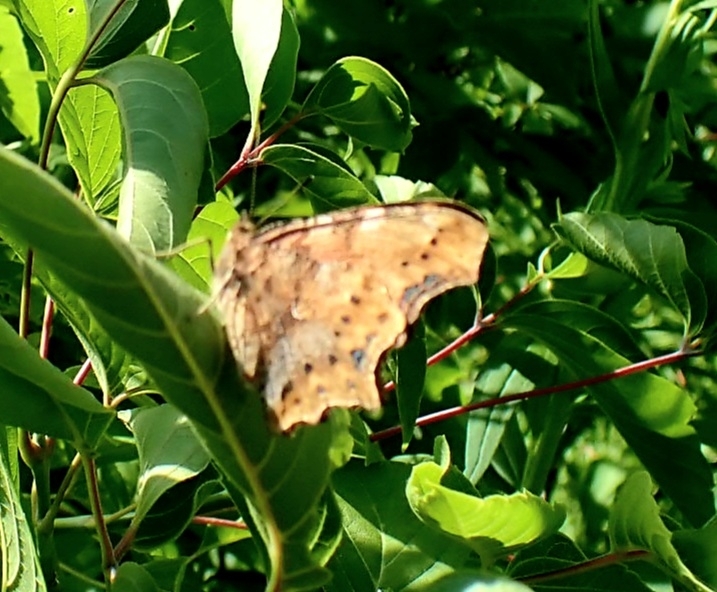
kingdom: Animalia
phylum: Arthropoda
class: Insecta
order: Lepidoptera
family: Nymphalidae
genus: Polygonia
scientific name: Polygonia c-album
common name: Comma
